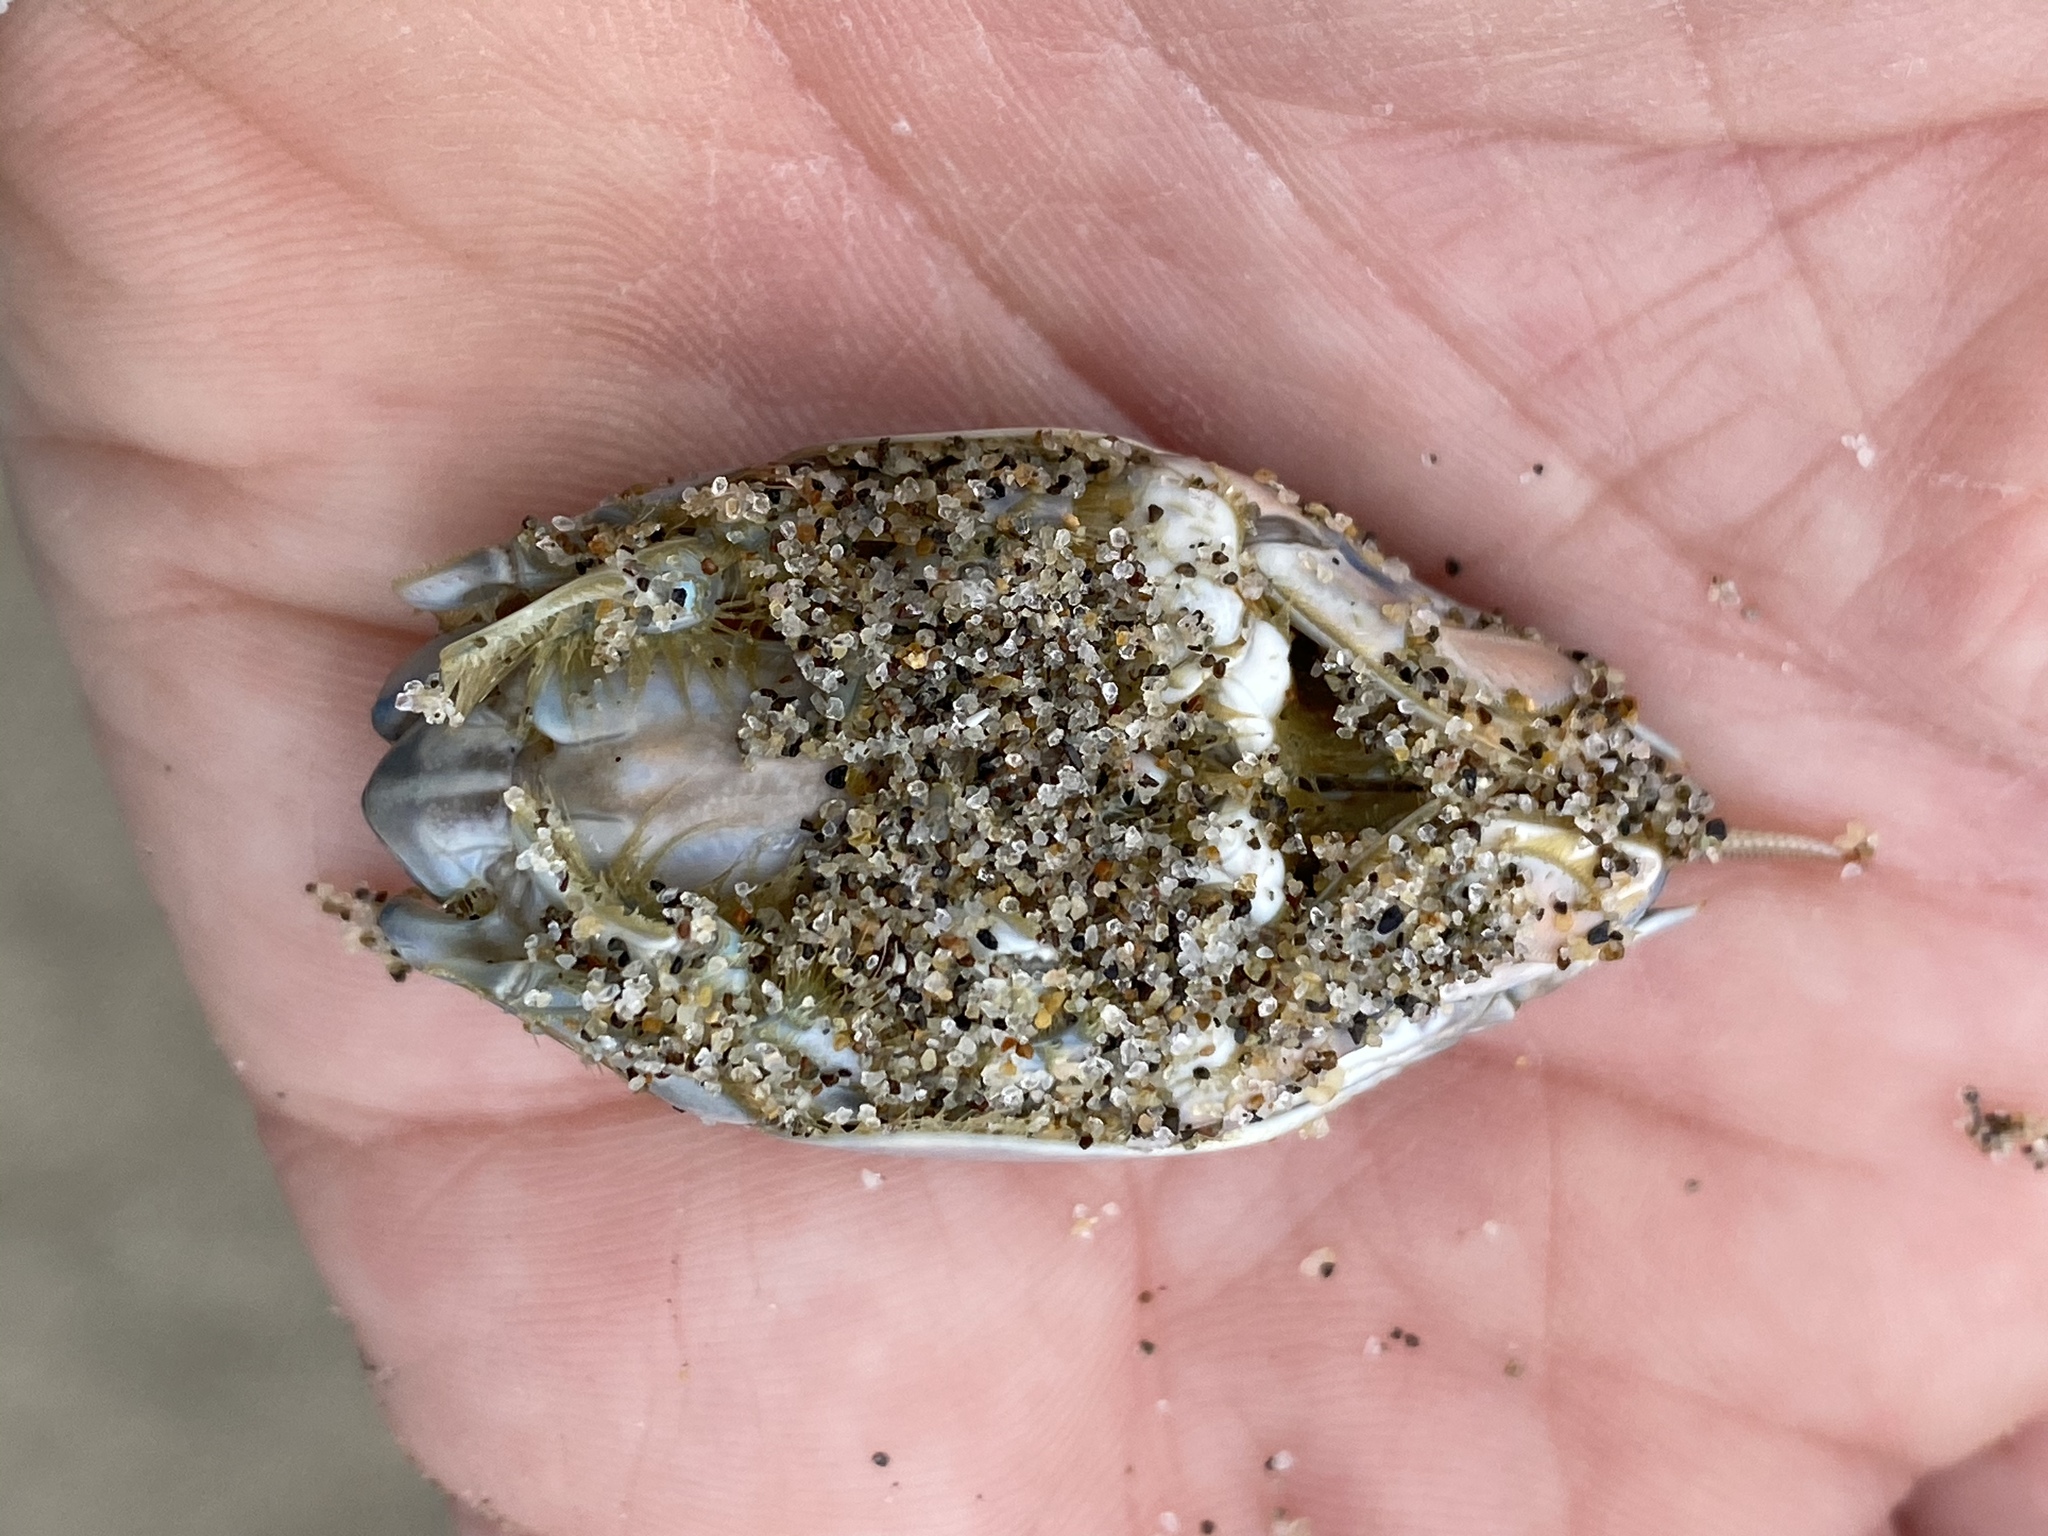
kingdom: Animalia
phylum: Arthropoda
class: Malacostraca
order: Decapoda
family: Hippidae
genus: Emerita
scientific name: Emerita analoga
